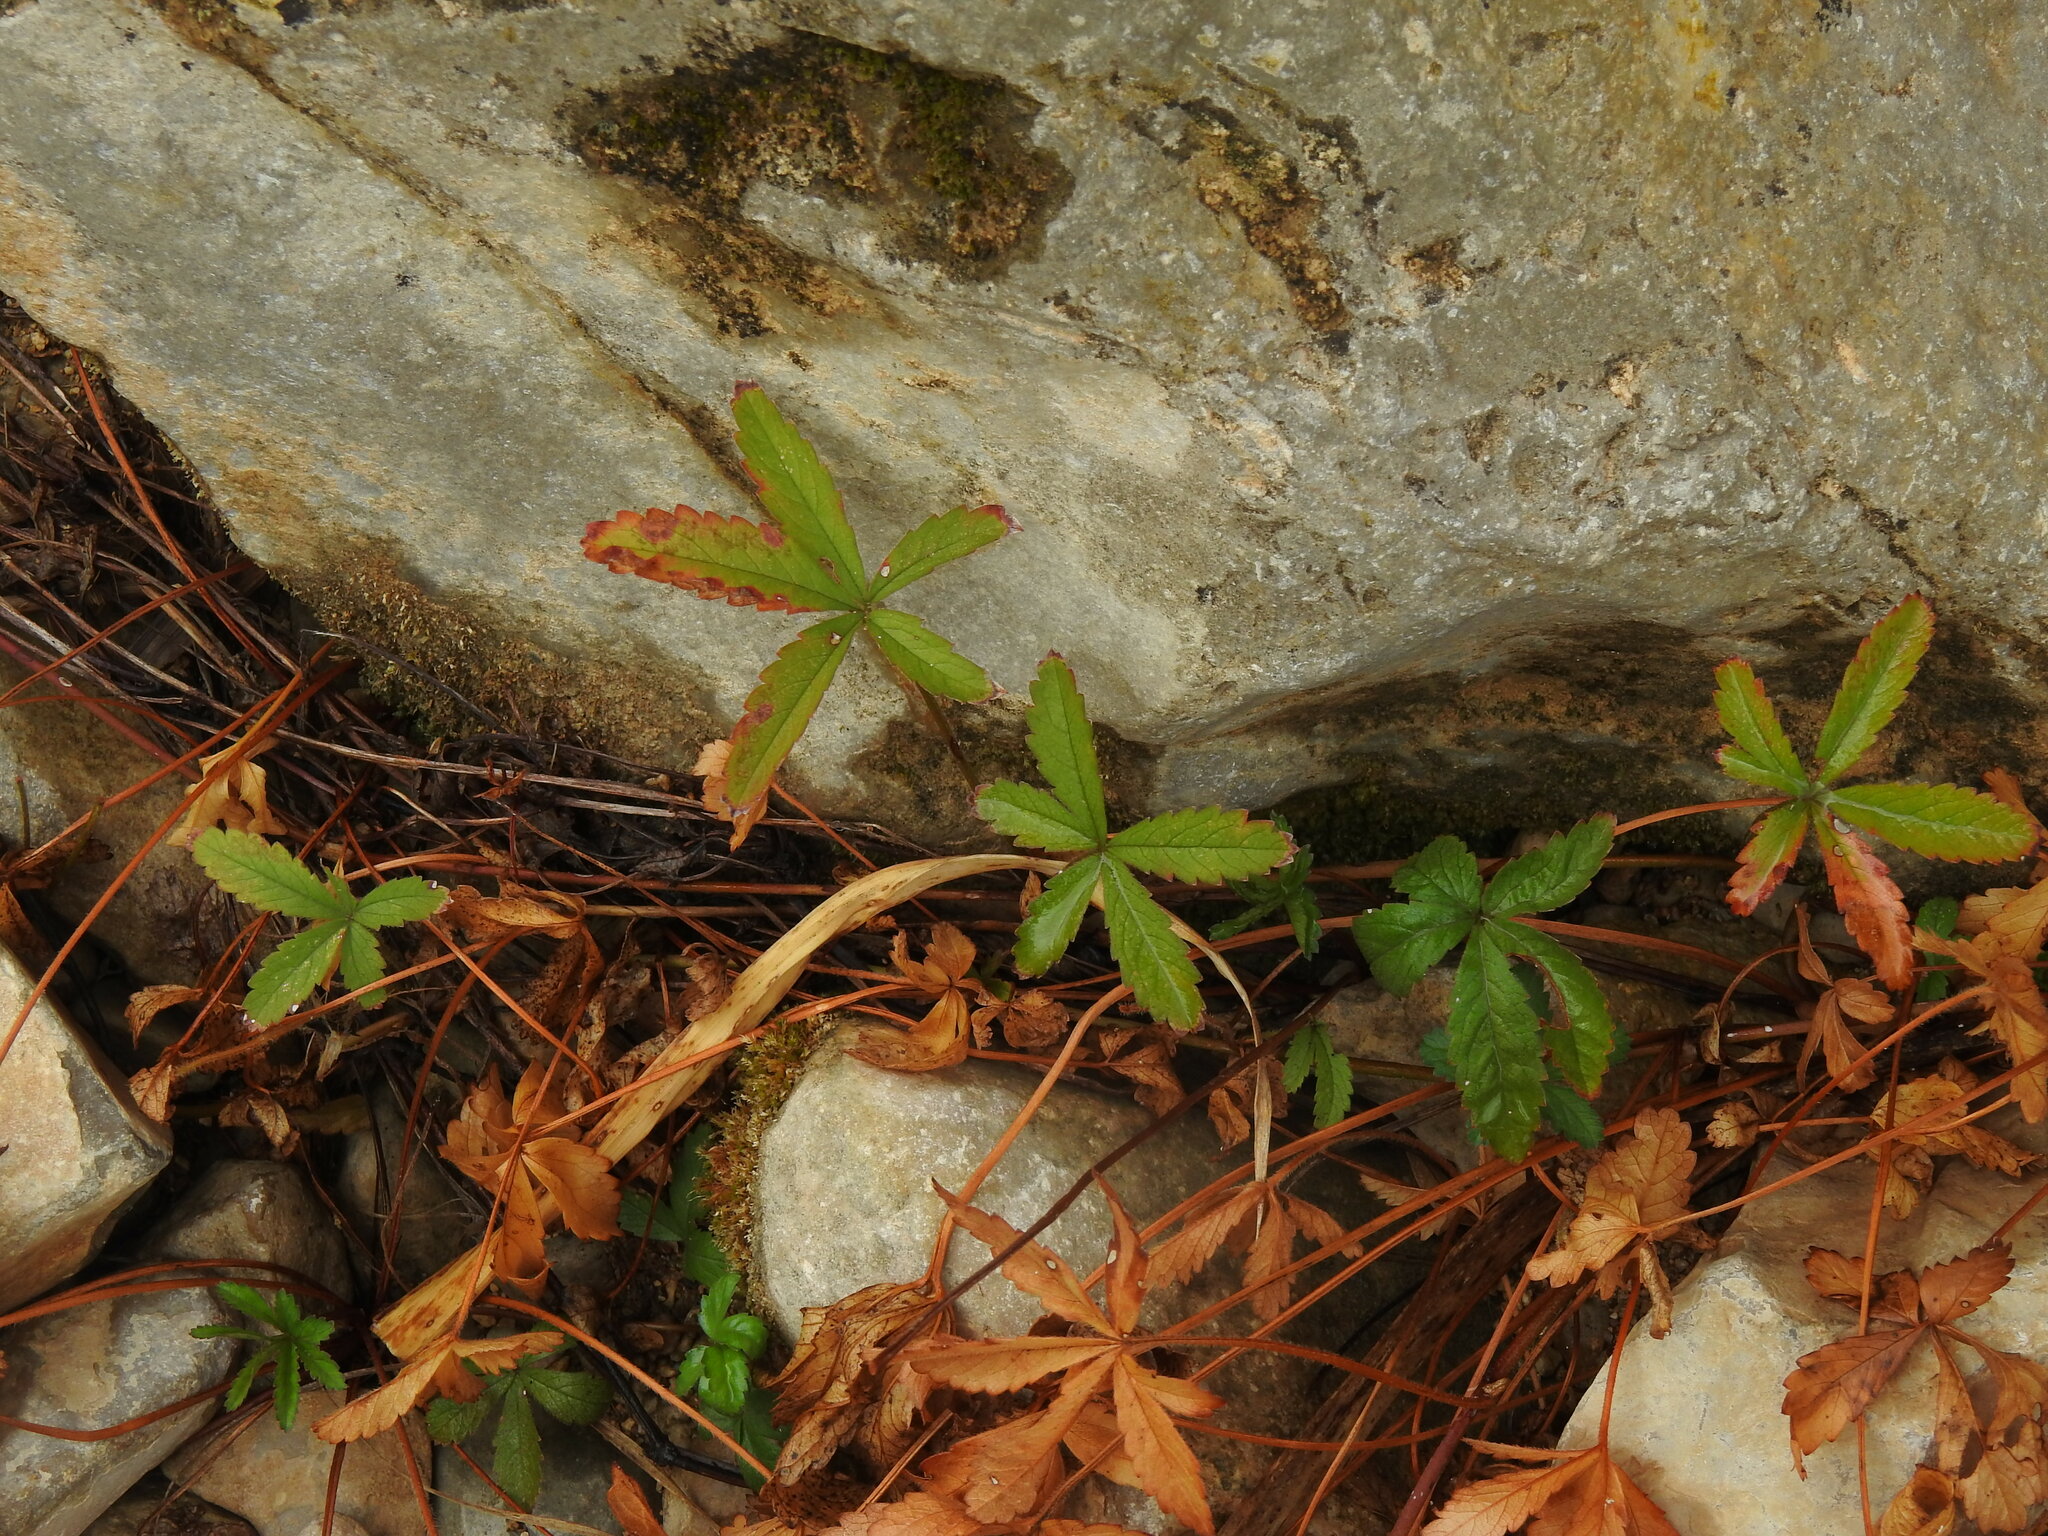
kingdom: Plantae
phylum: Tracheophyta
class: Magnoliopsida
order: Rosales
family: Rosaceae
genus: Potentilla
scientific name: Potentilla reptans
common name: Creeping cinquefoil
